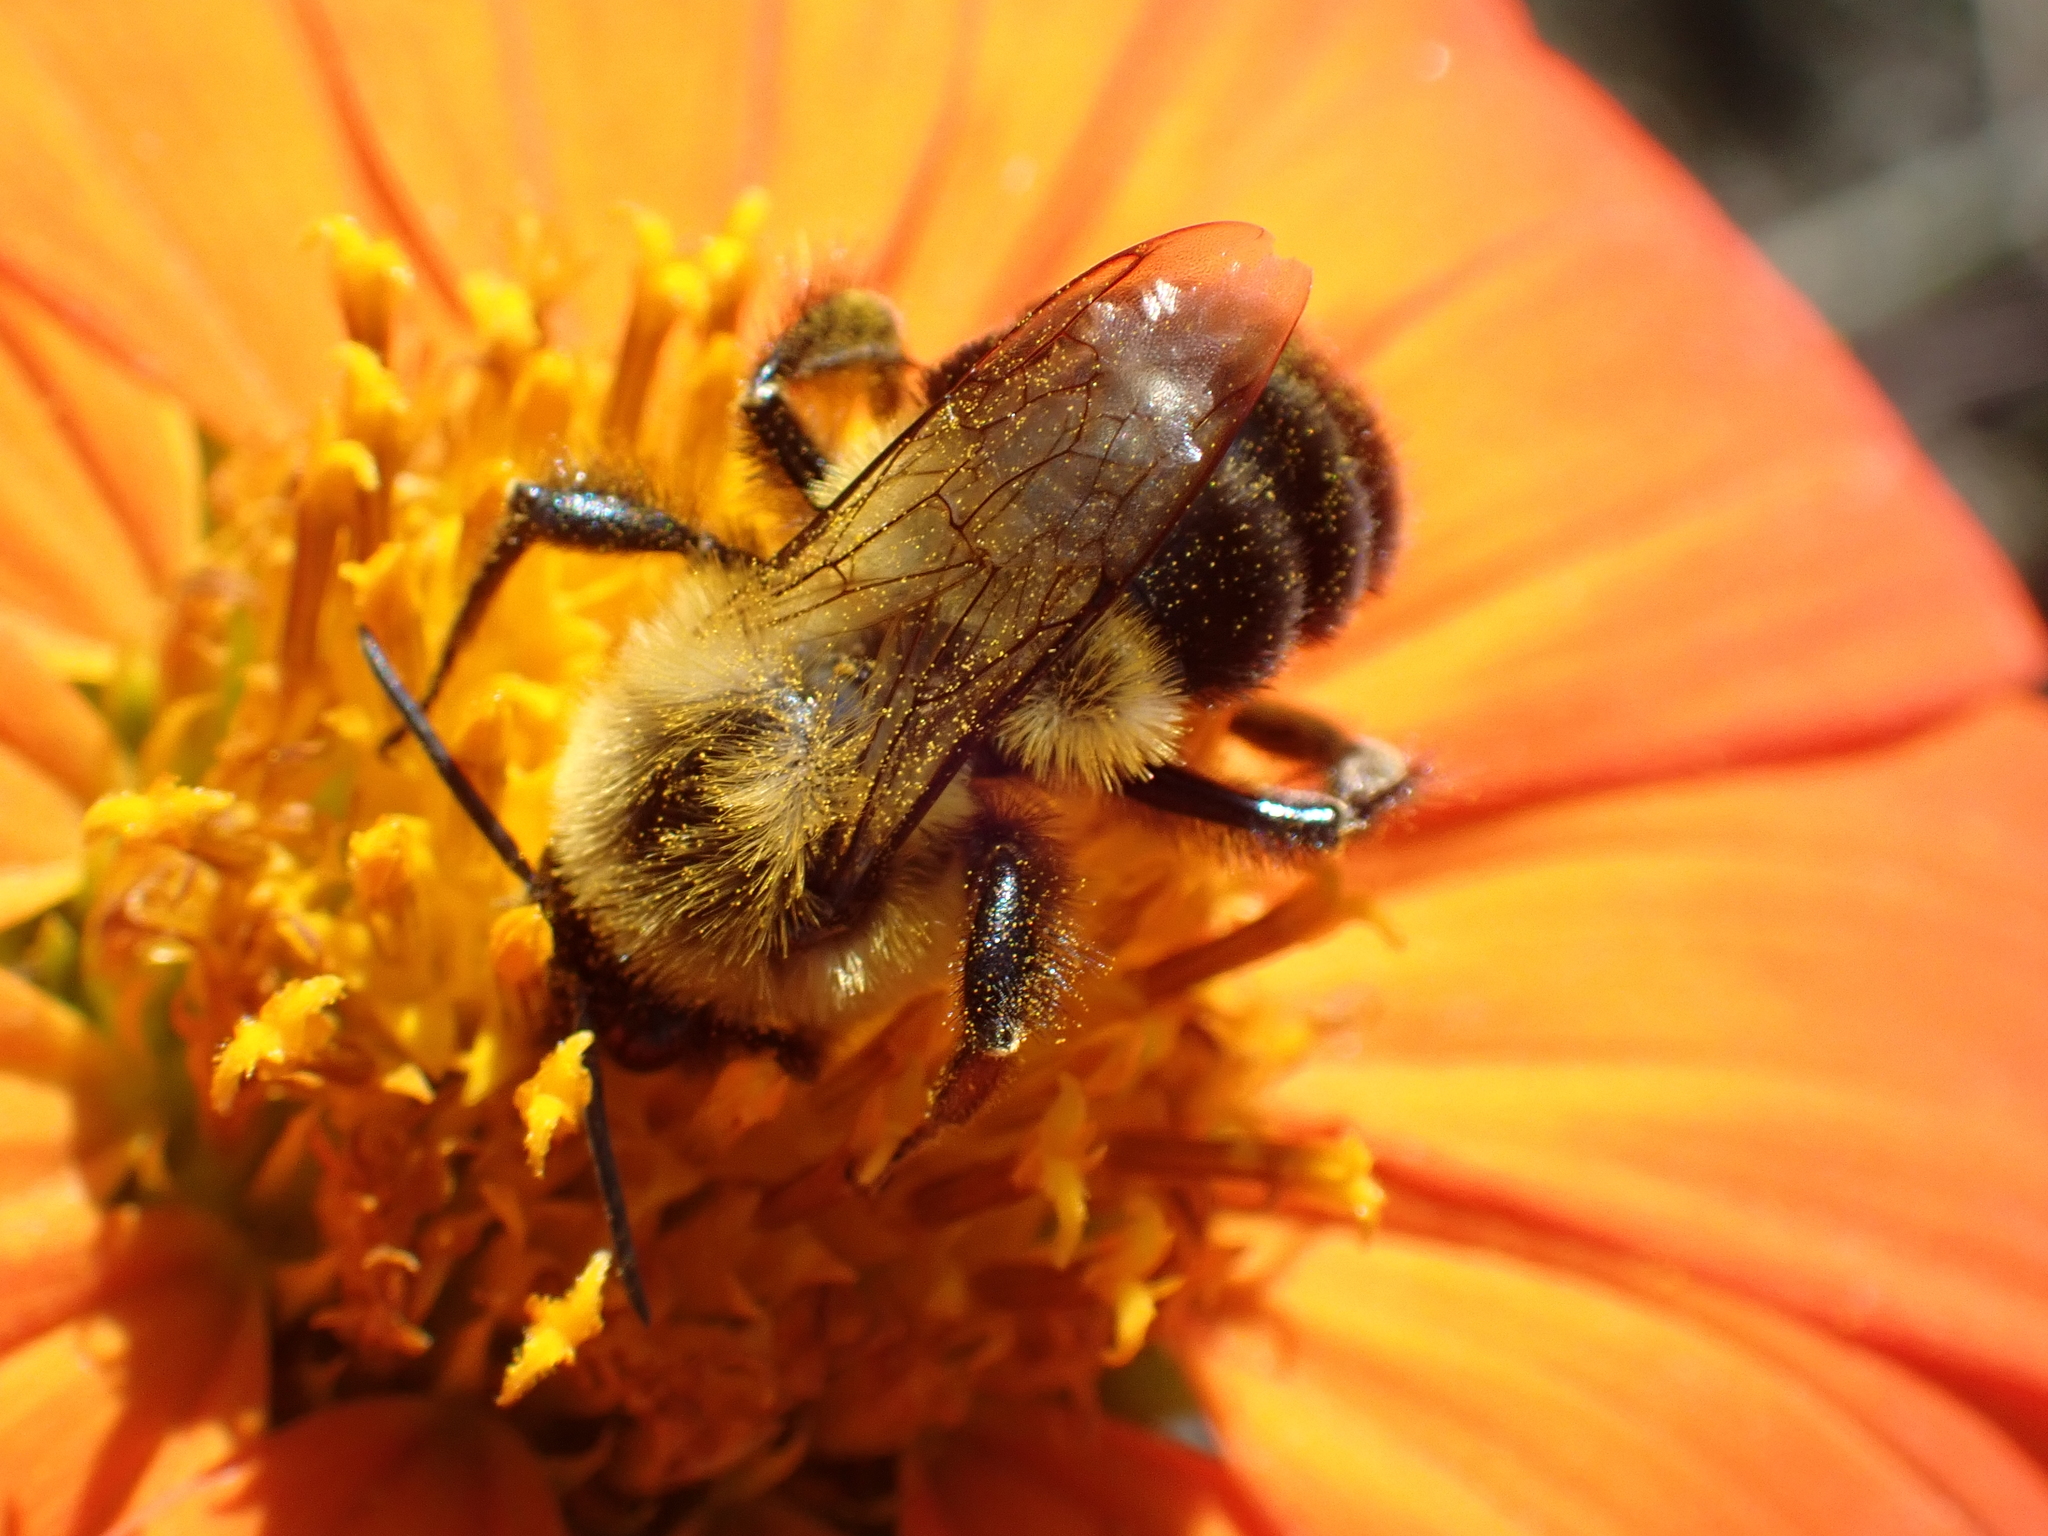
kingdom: Animalia
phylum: Arthropoda
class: Insecta
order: Hymenoptera
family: Apidae
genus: Bombus
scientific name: Bombus impatiens
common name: Common eastern bumble bee
